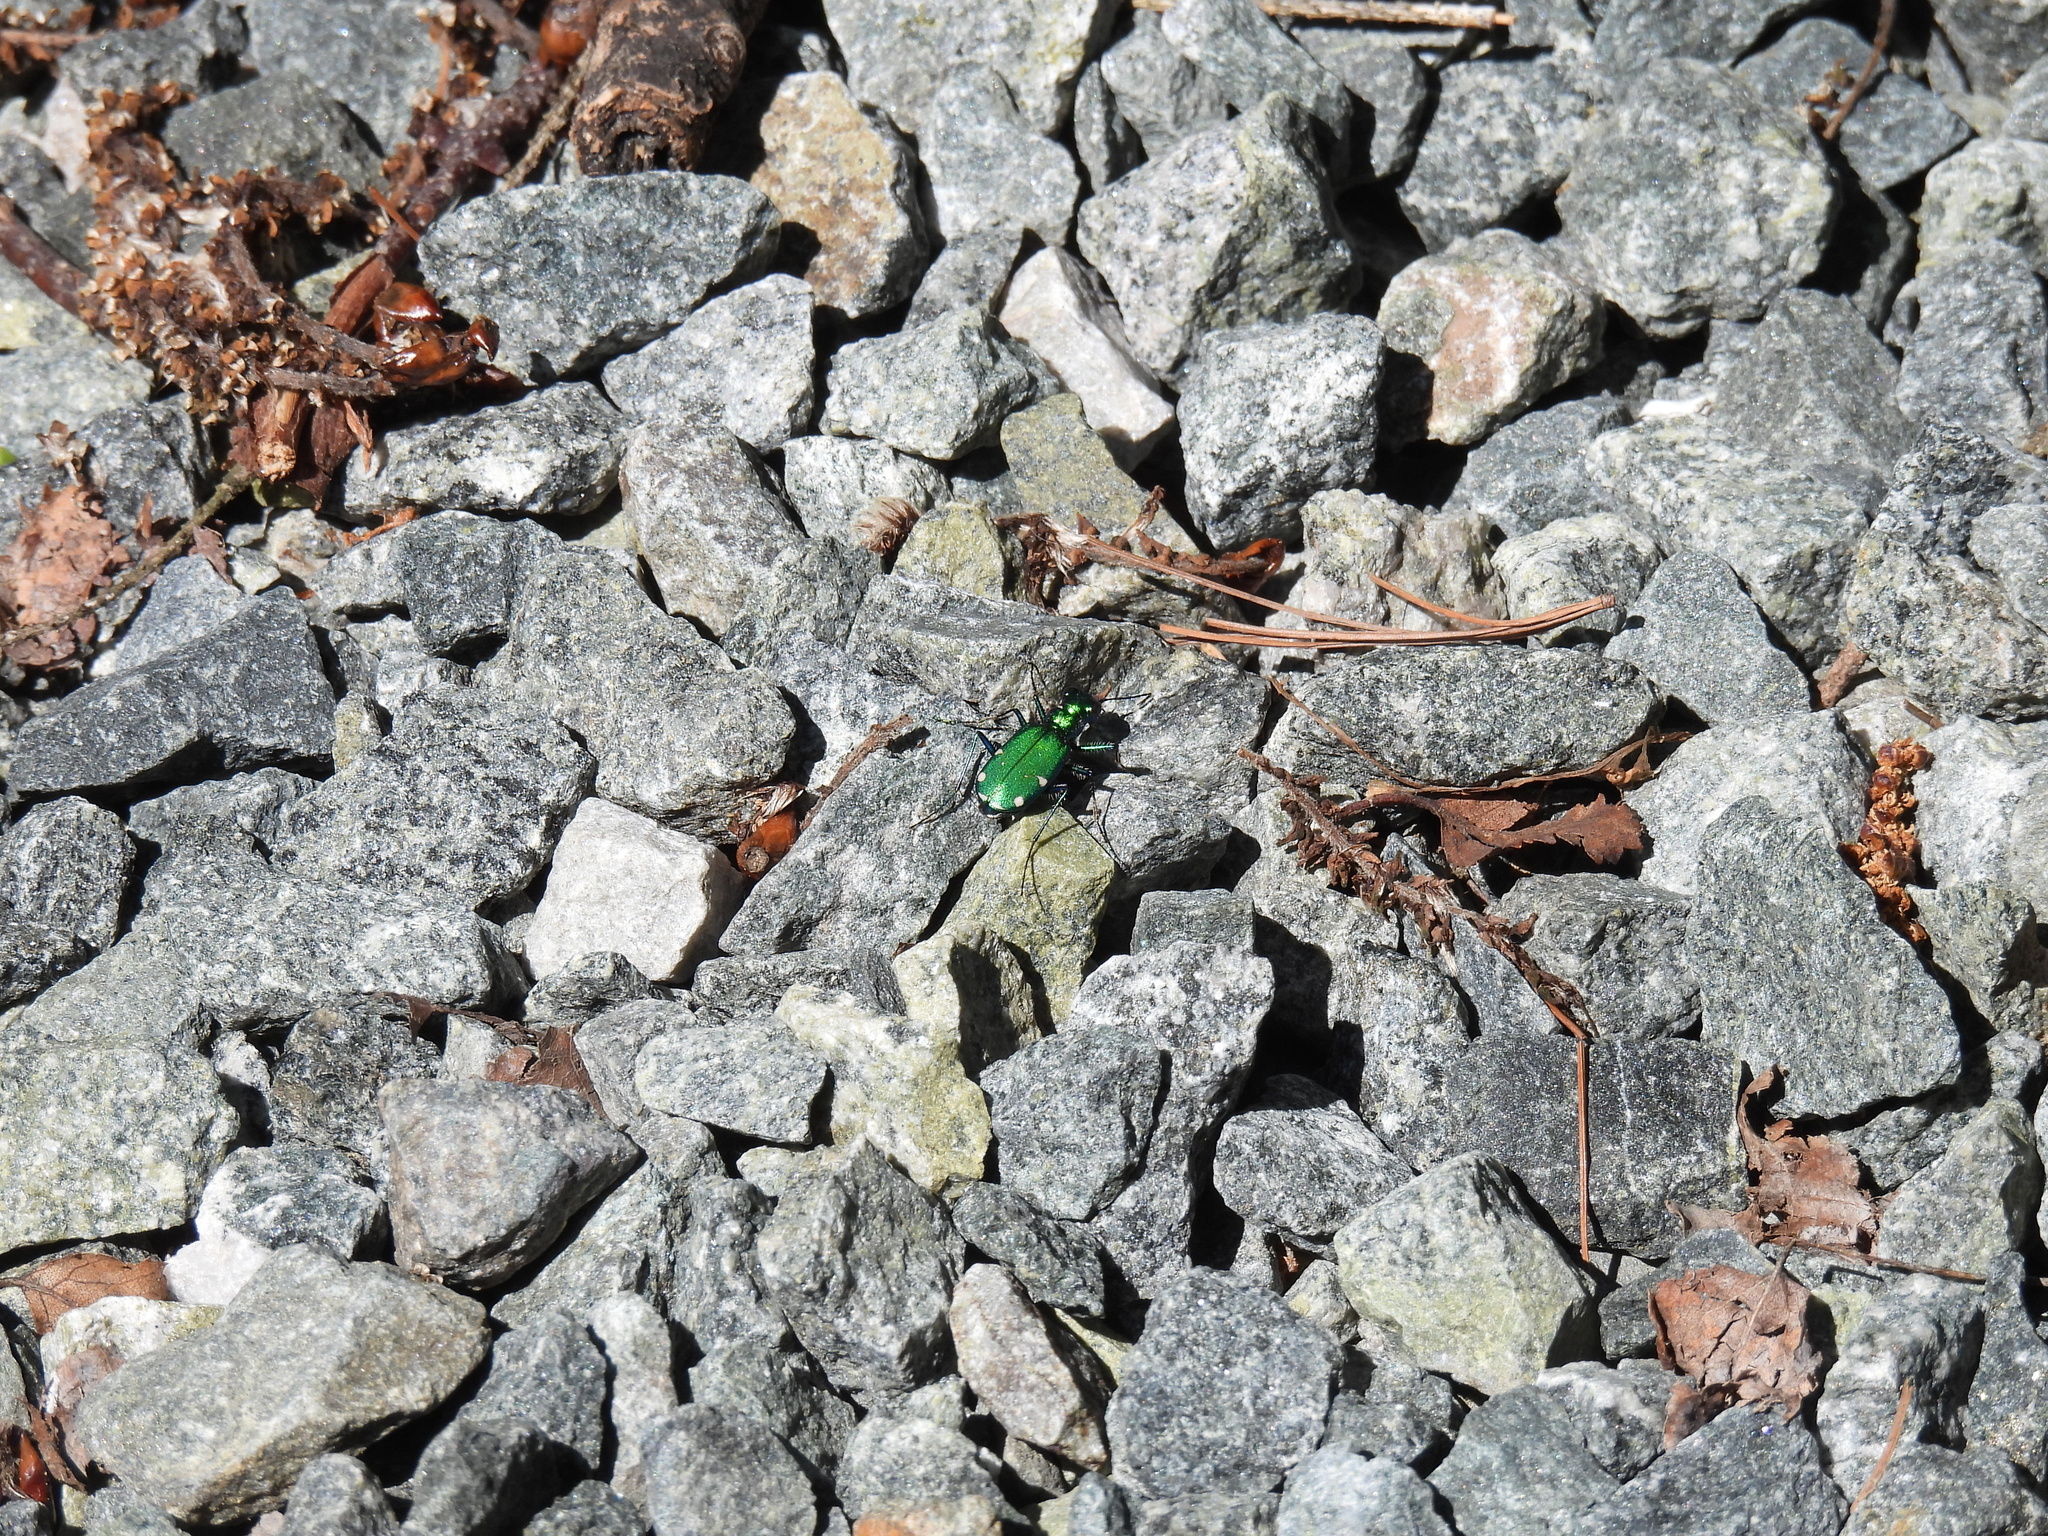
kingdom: Animalia
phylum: Arthropoda
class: Insecta
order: Coleoptera
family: Carabidae
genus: Cicindela
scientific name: Cicindela sexguttata
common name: Six-spotted tiger beetle
